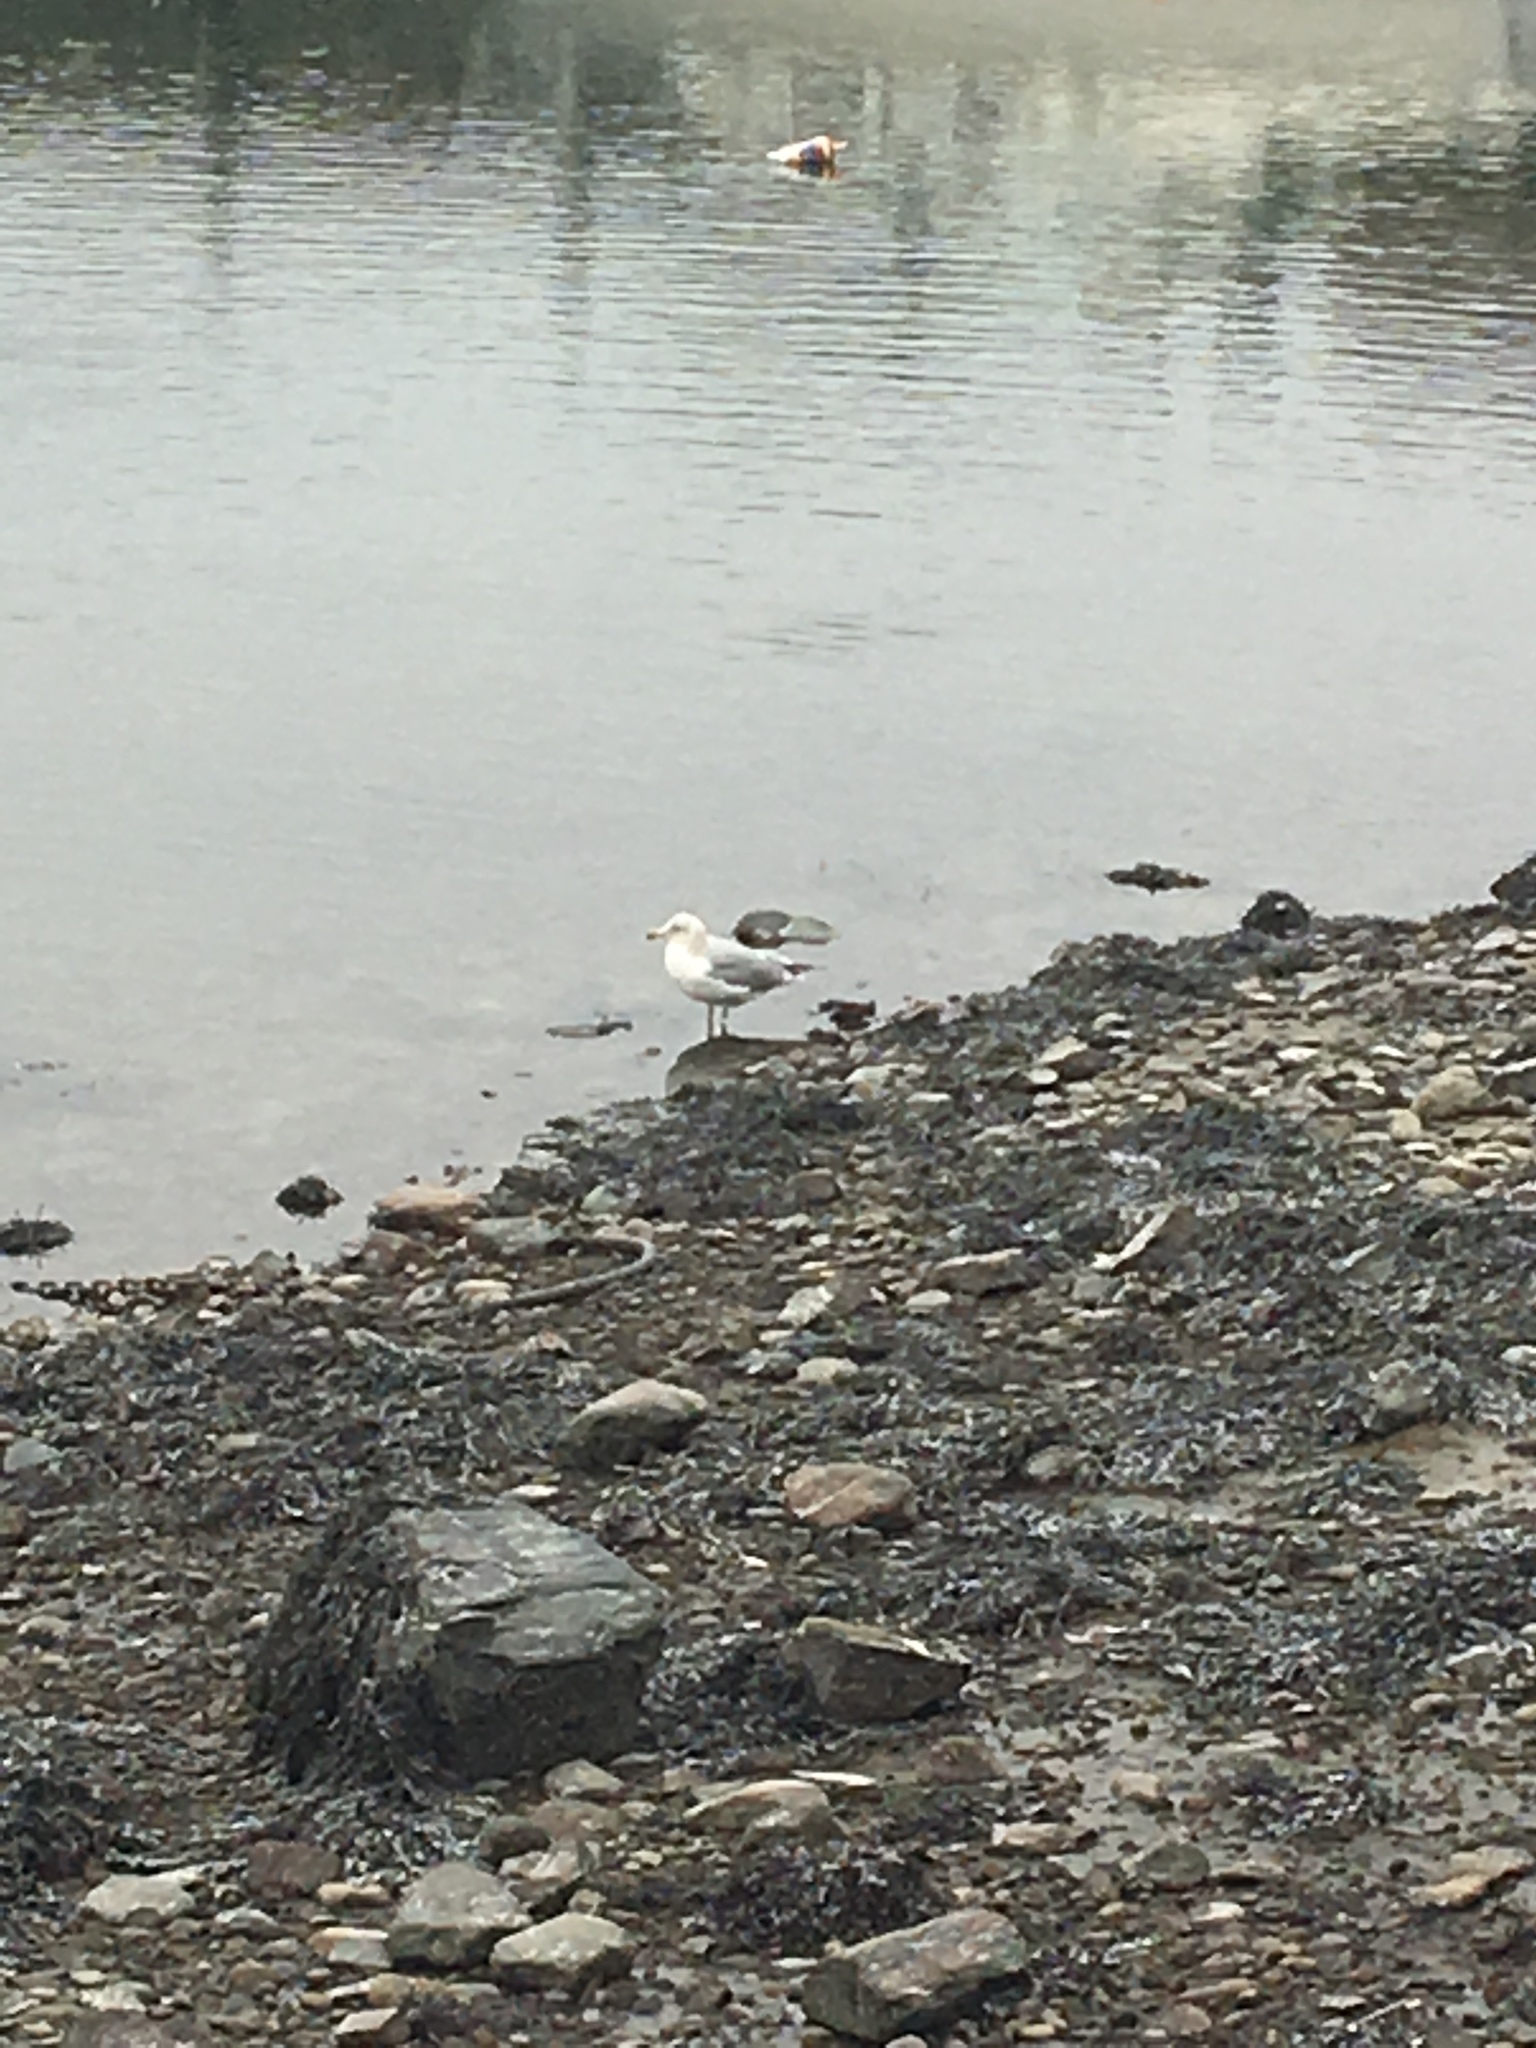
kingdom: Animalia
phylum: Chordata
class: Aves
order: Charadriiformes
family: Laridae
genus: Larus
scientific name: Larus delawarensis
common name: Ring-billed gull
